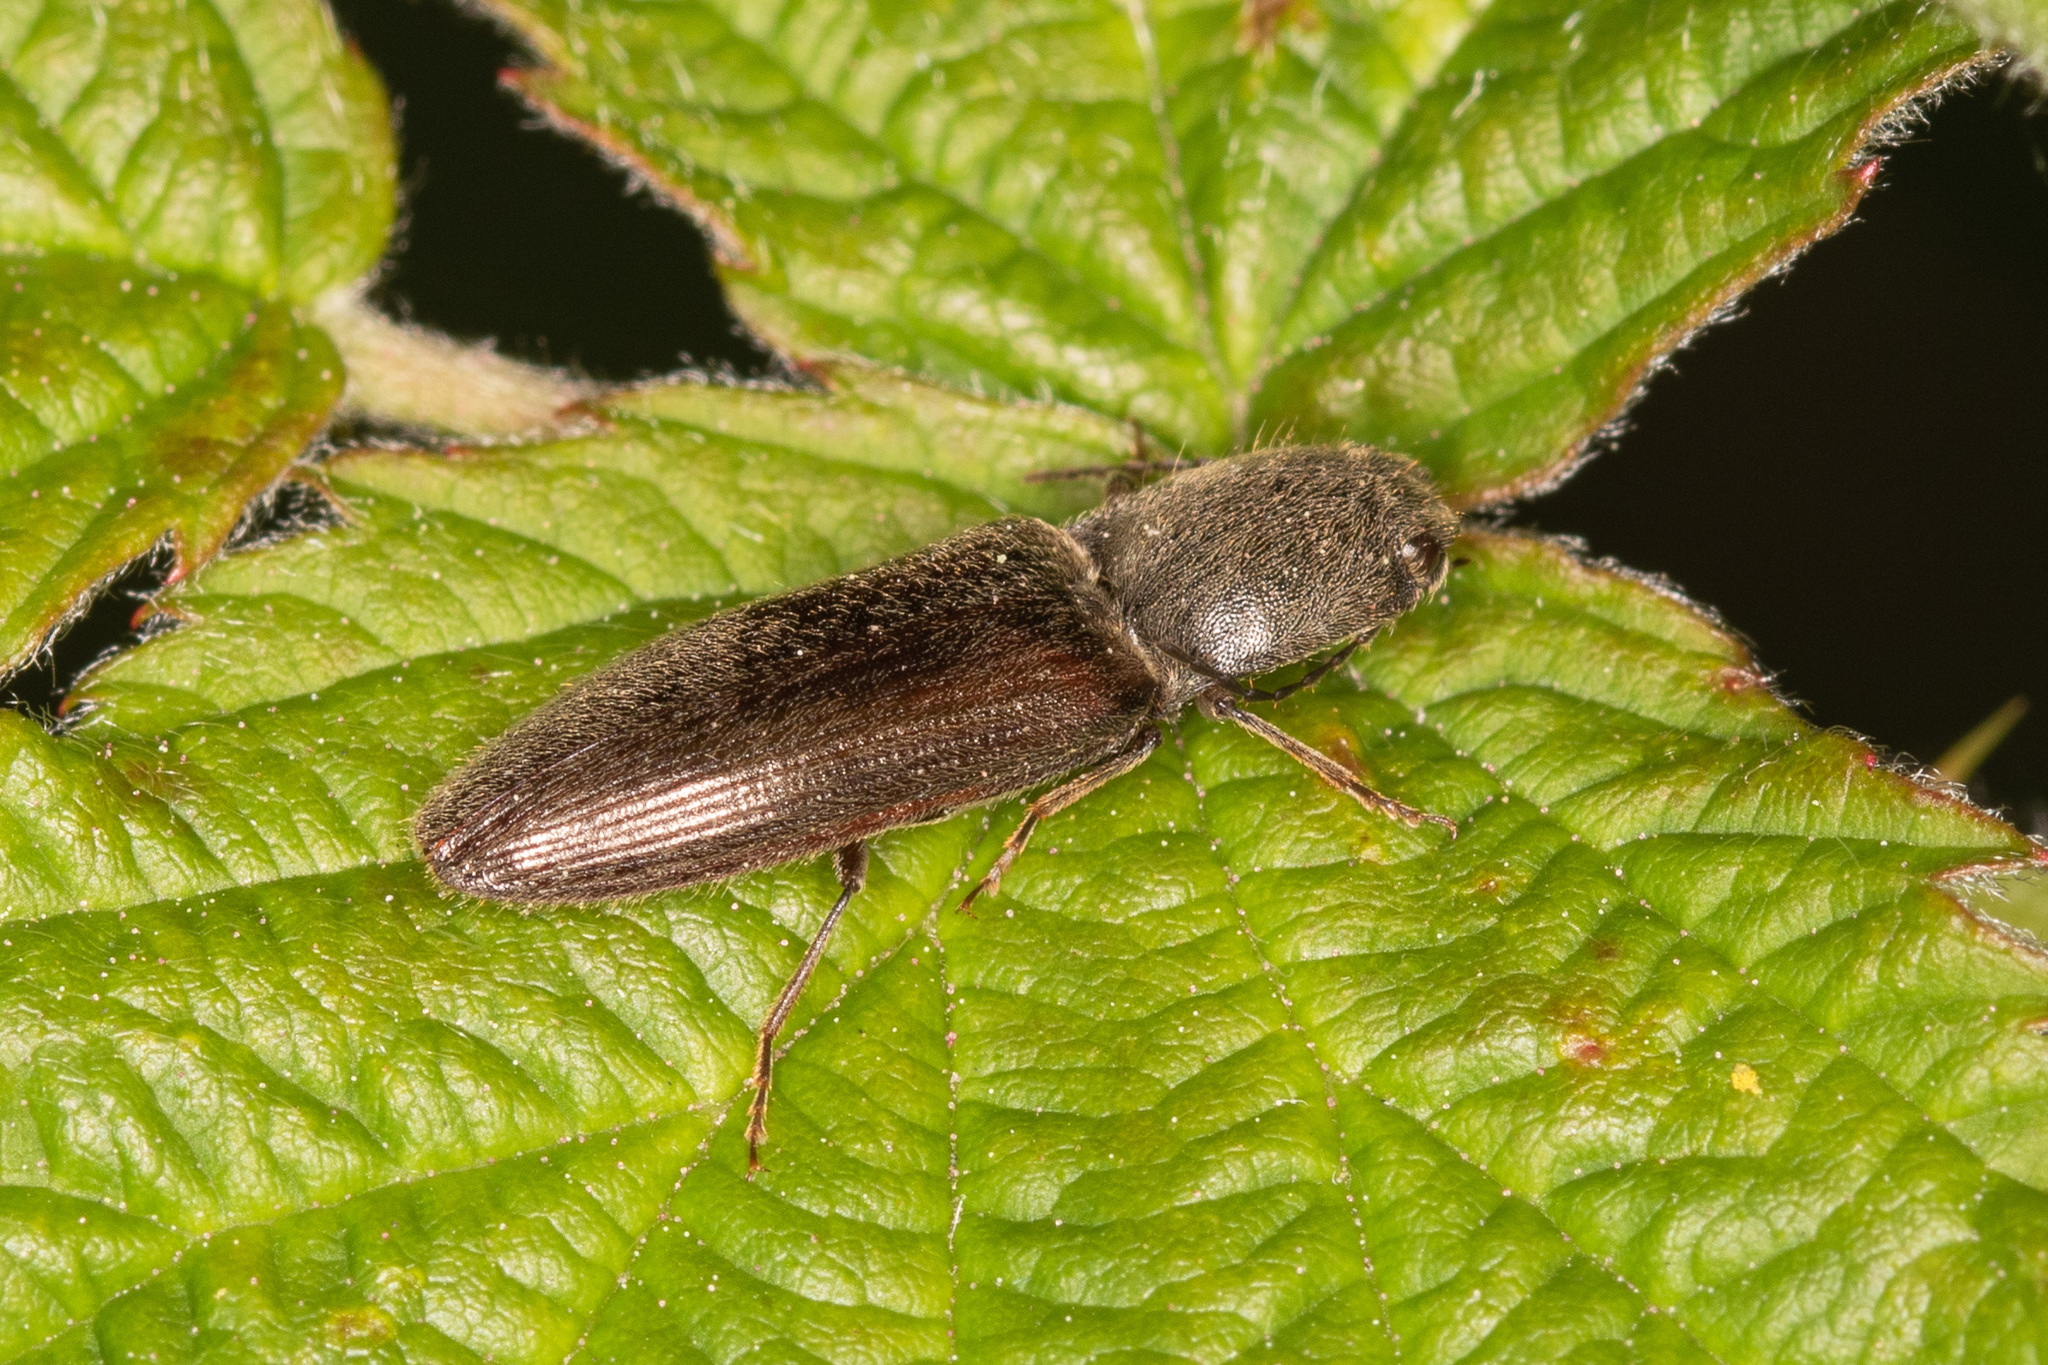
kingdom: Animalia
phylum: Arthropoda
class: Insecta
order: Coleoptera
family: Elateridae
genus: Athous
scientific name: Athous haemorrhoidalis
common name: Red-brown click beetle
